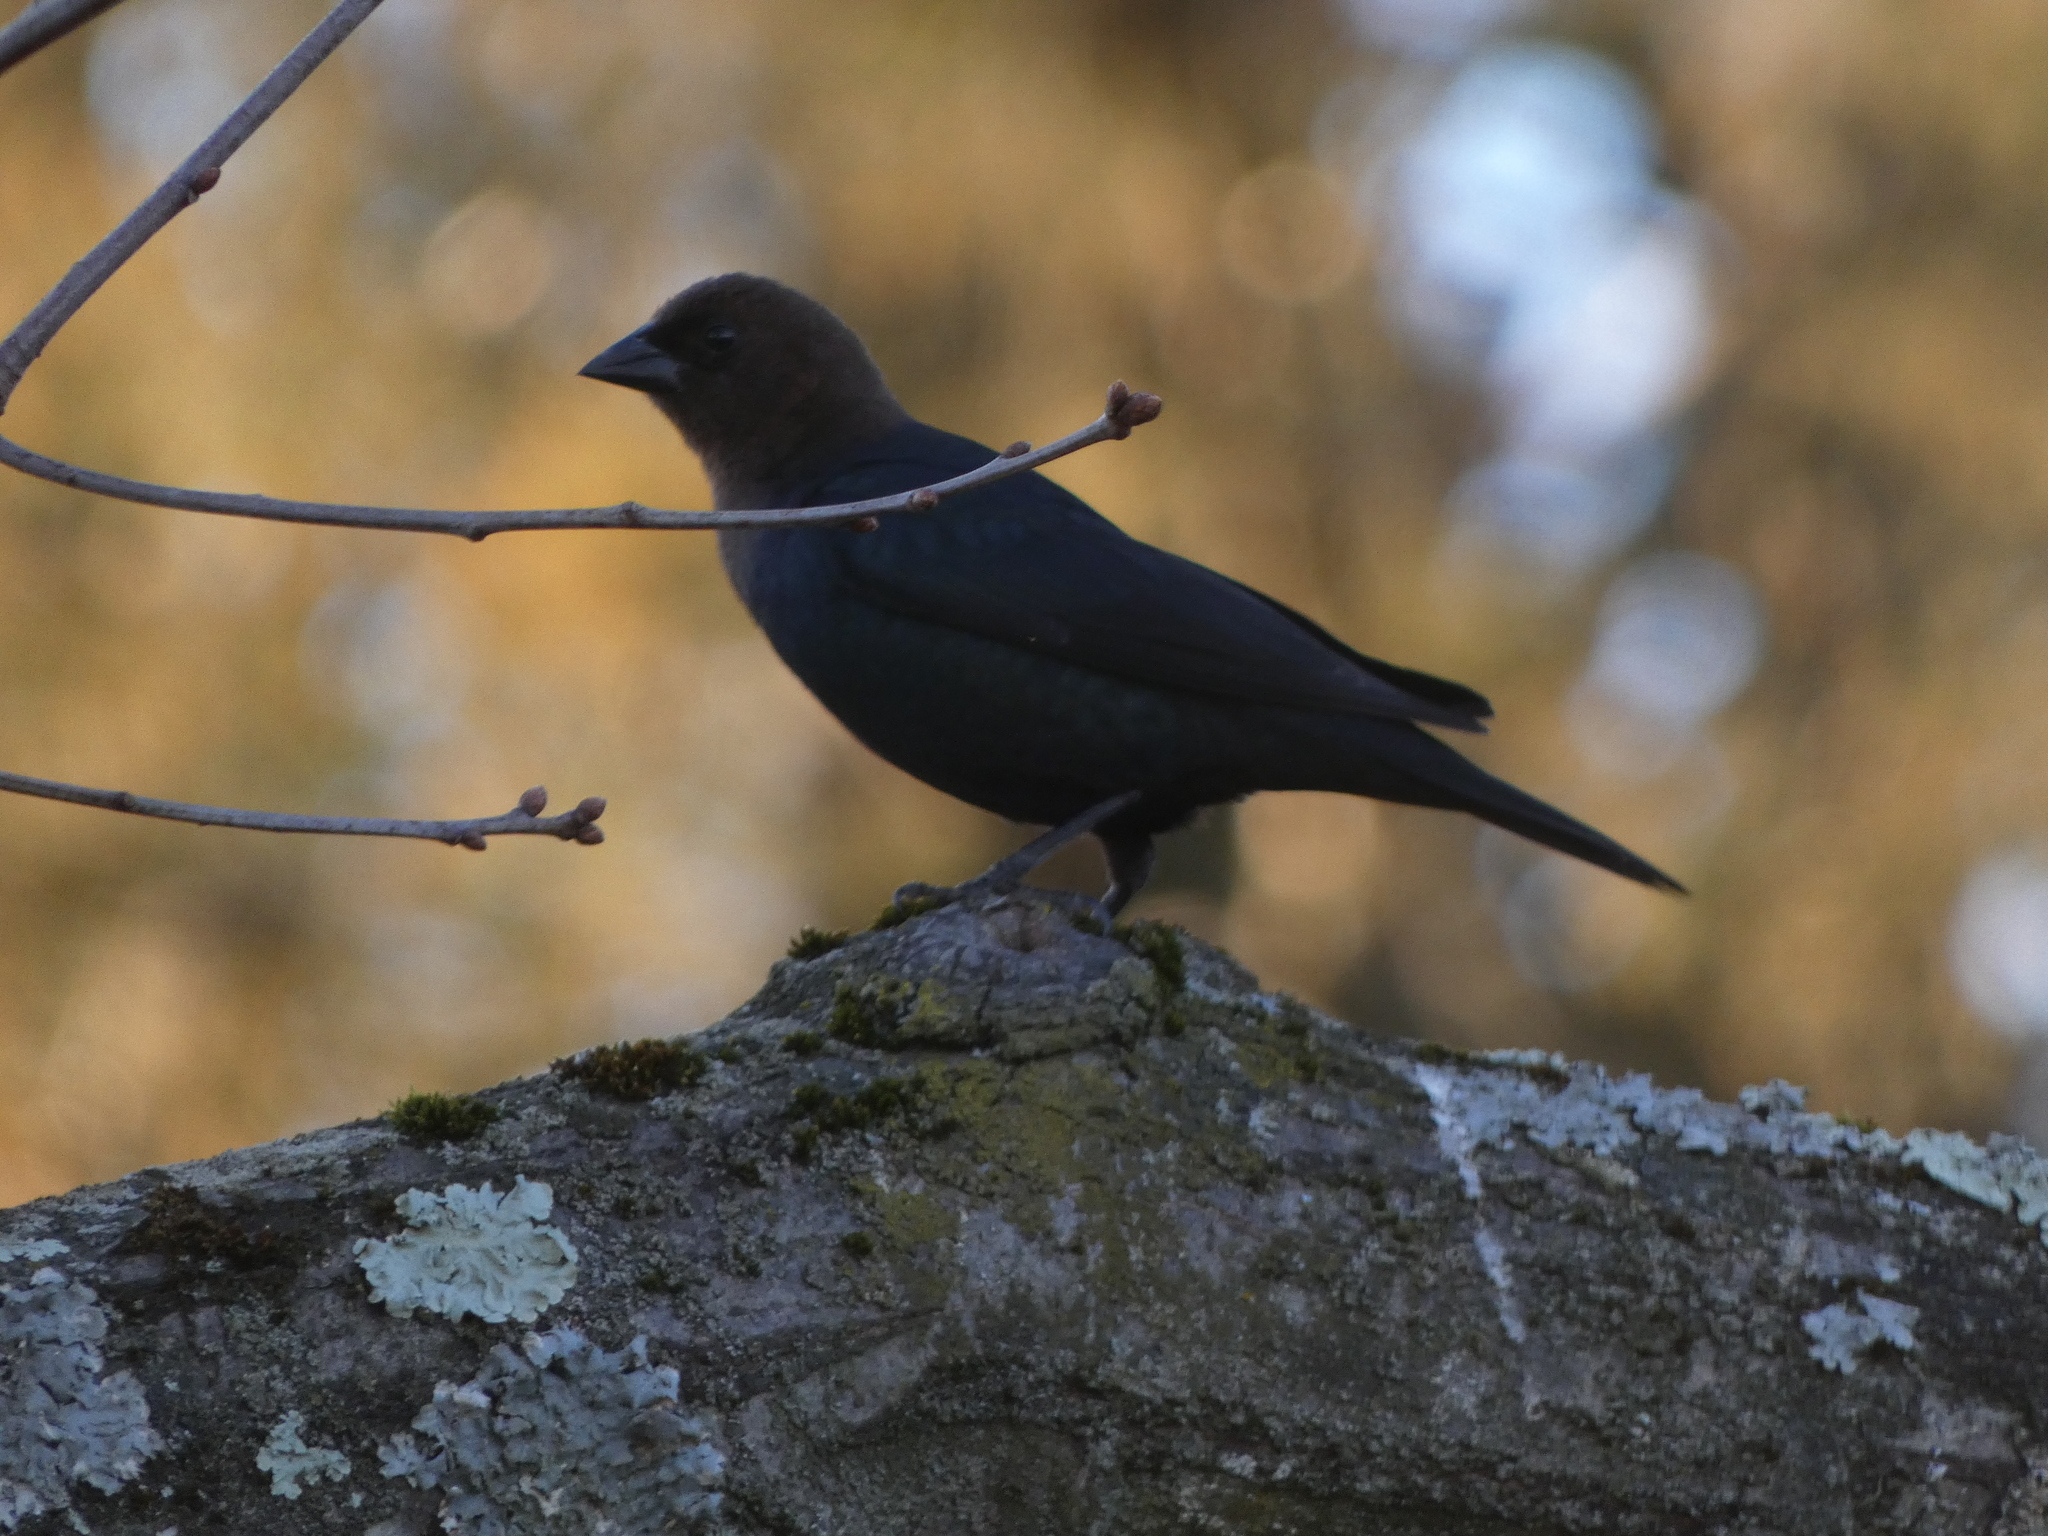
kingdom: Animalia
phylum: Chordata
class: Aves
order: Passeriformes
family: Icteridae
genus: Molothrus
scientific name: Molothrus ater
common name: Brown-headed cowbird
